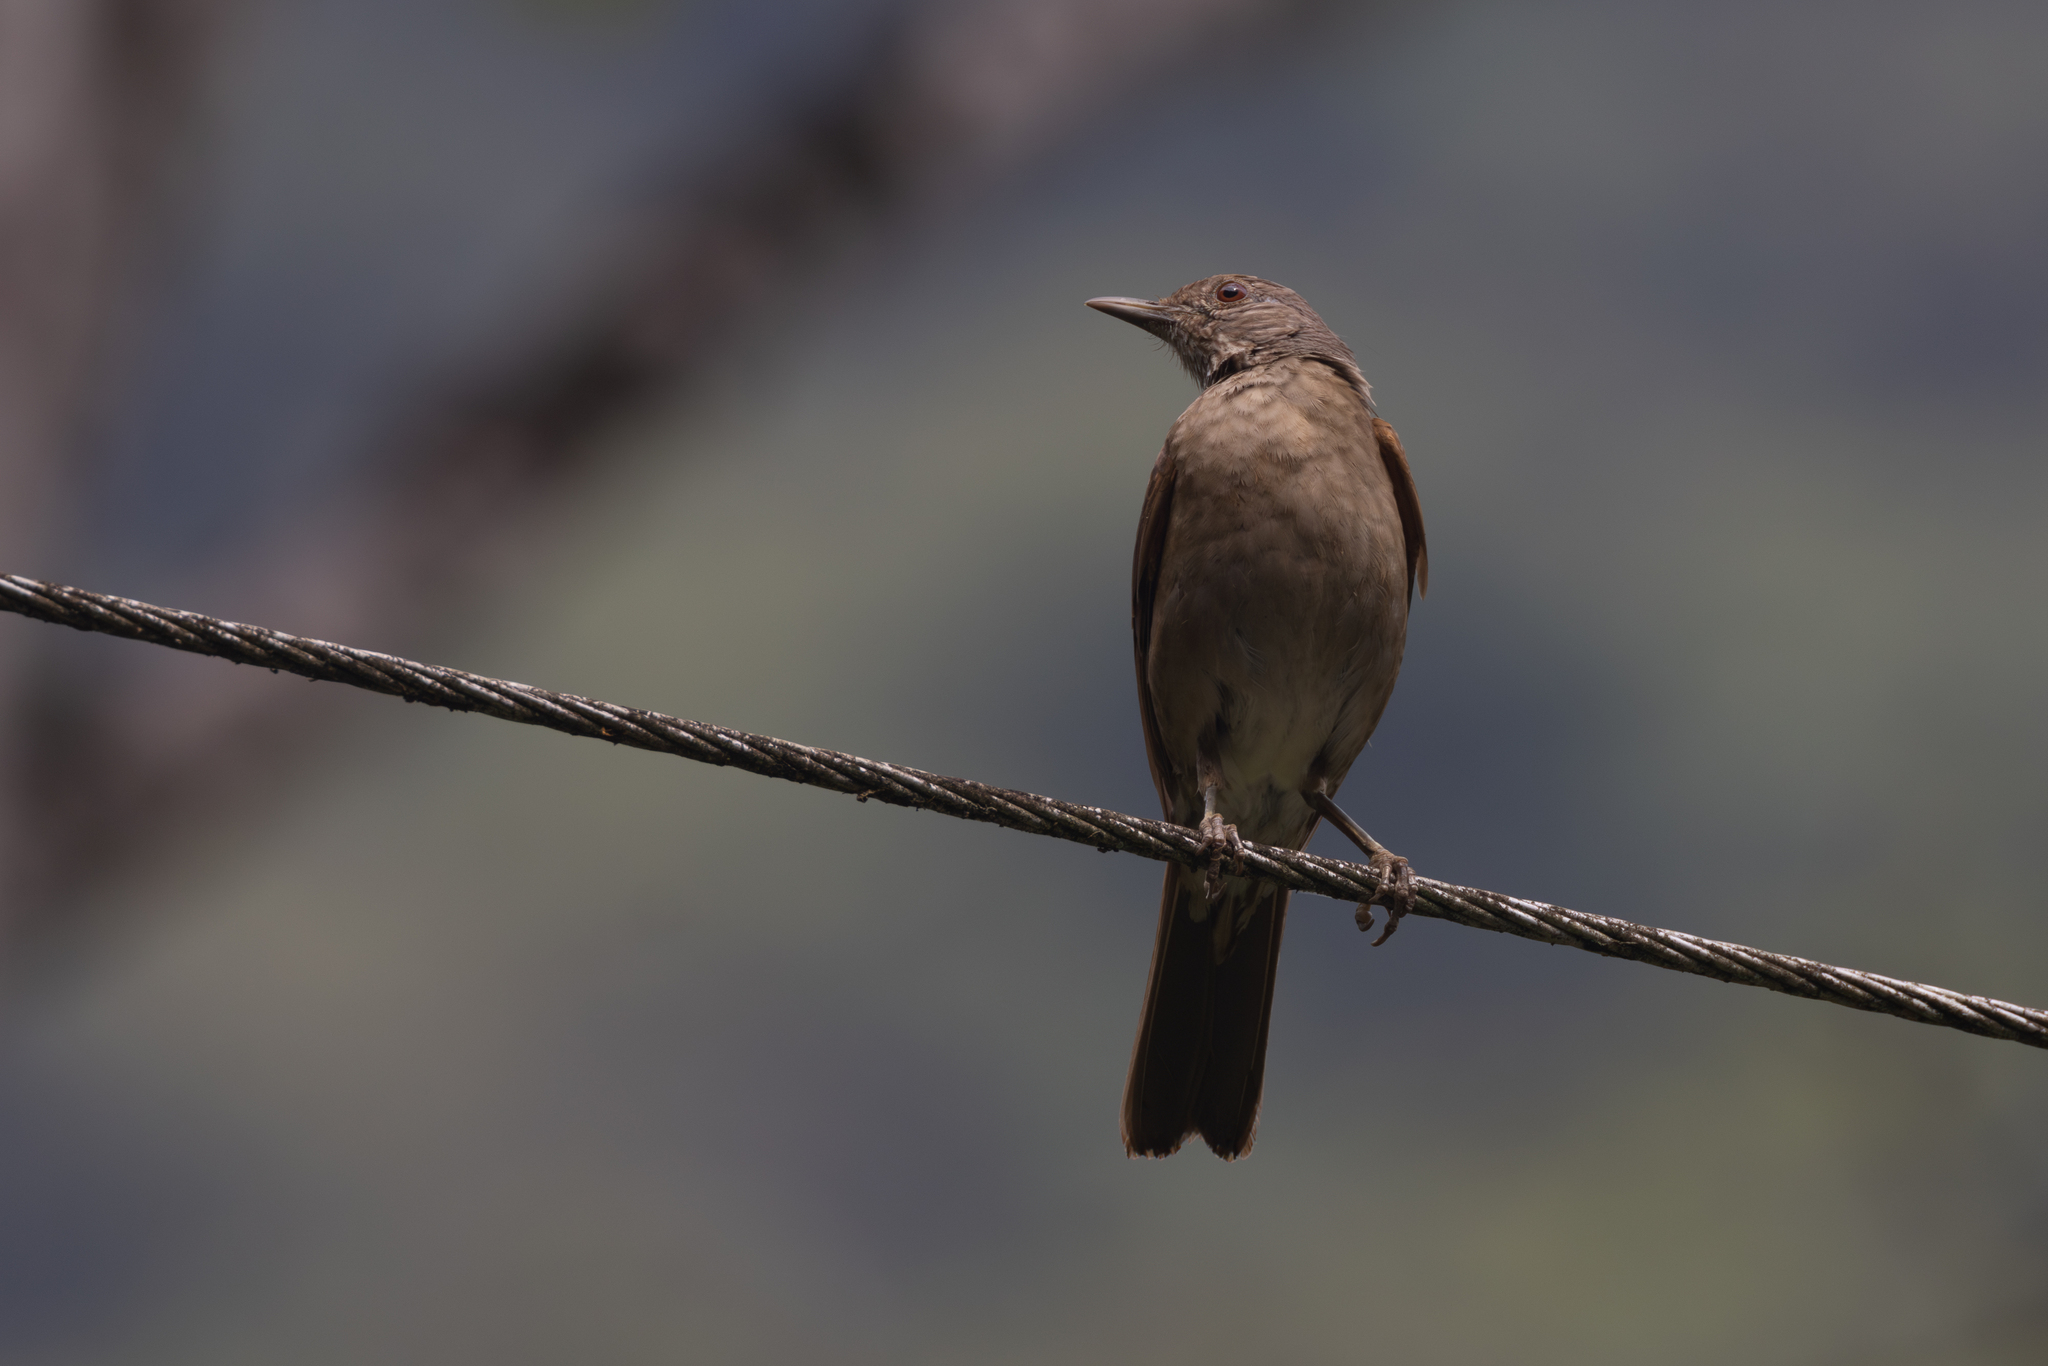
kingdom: Animalia
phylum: Chordata
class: Aves
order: Passeriformes
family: Turdidae
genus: Turdus
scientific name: Turdus leucomelas
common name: Pale-breasted thrush
